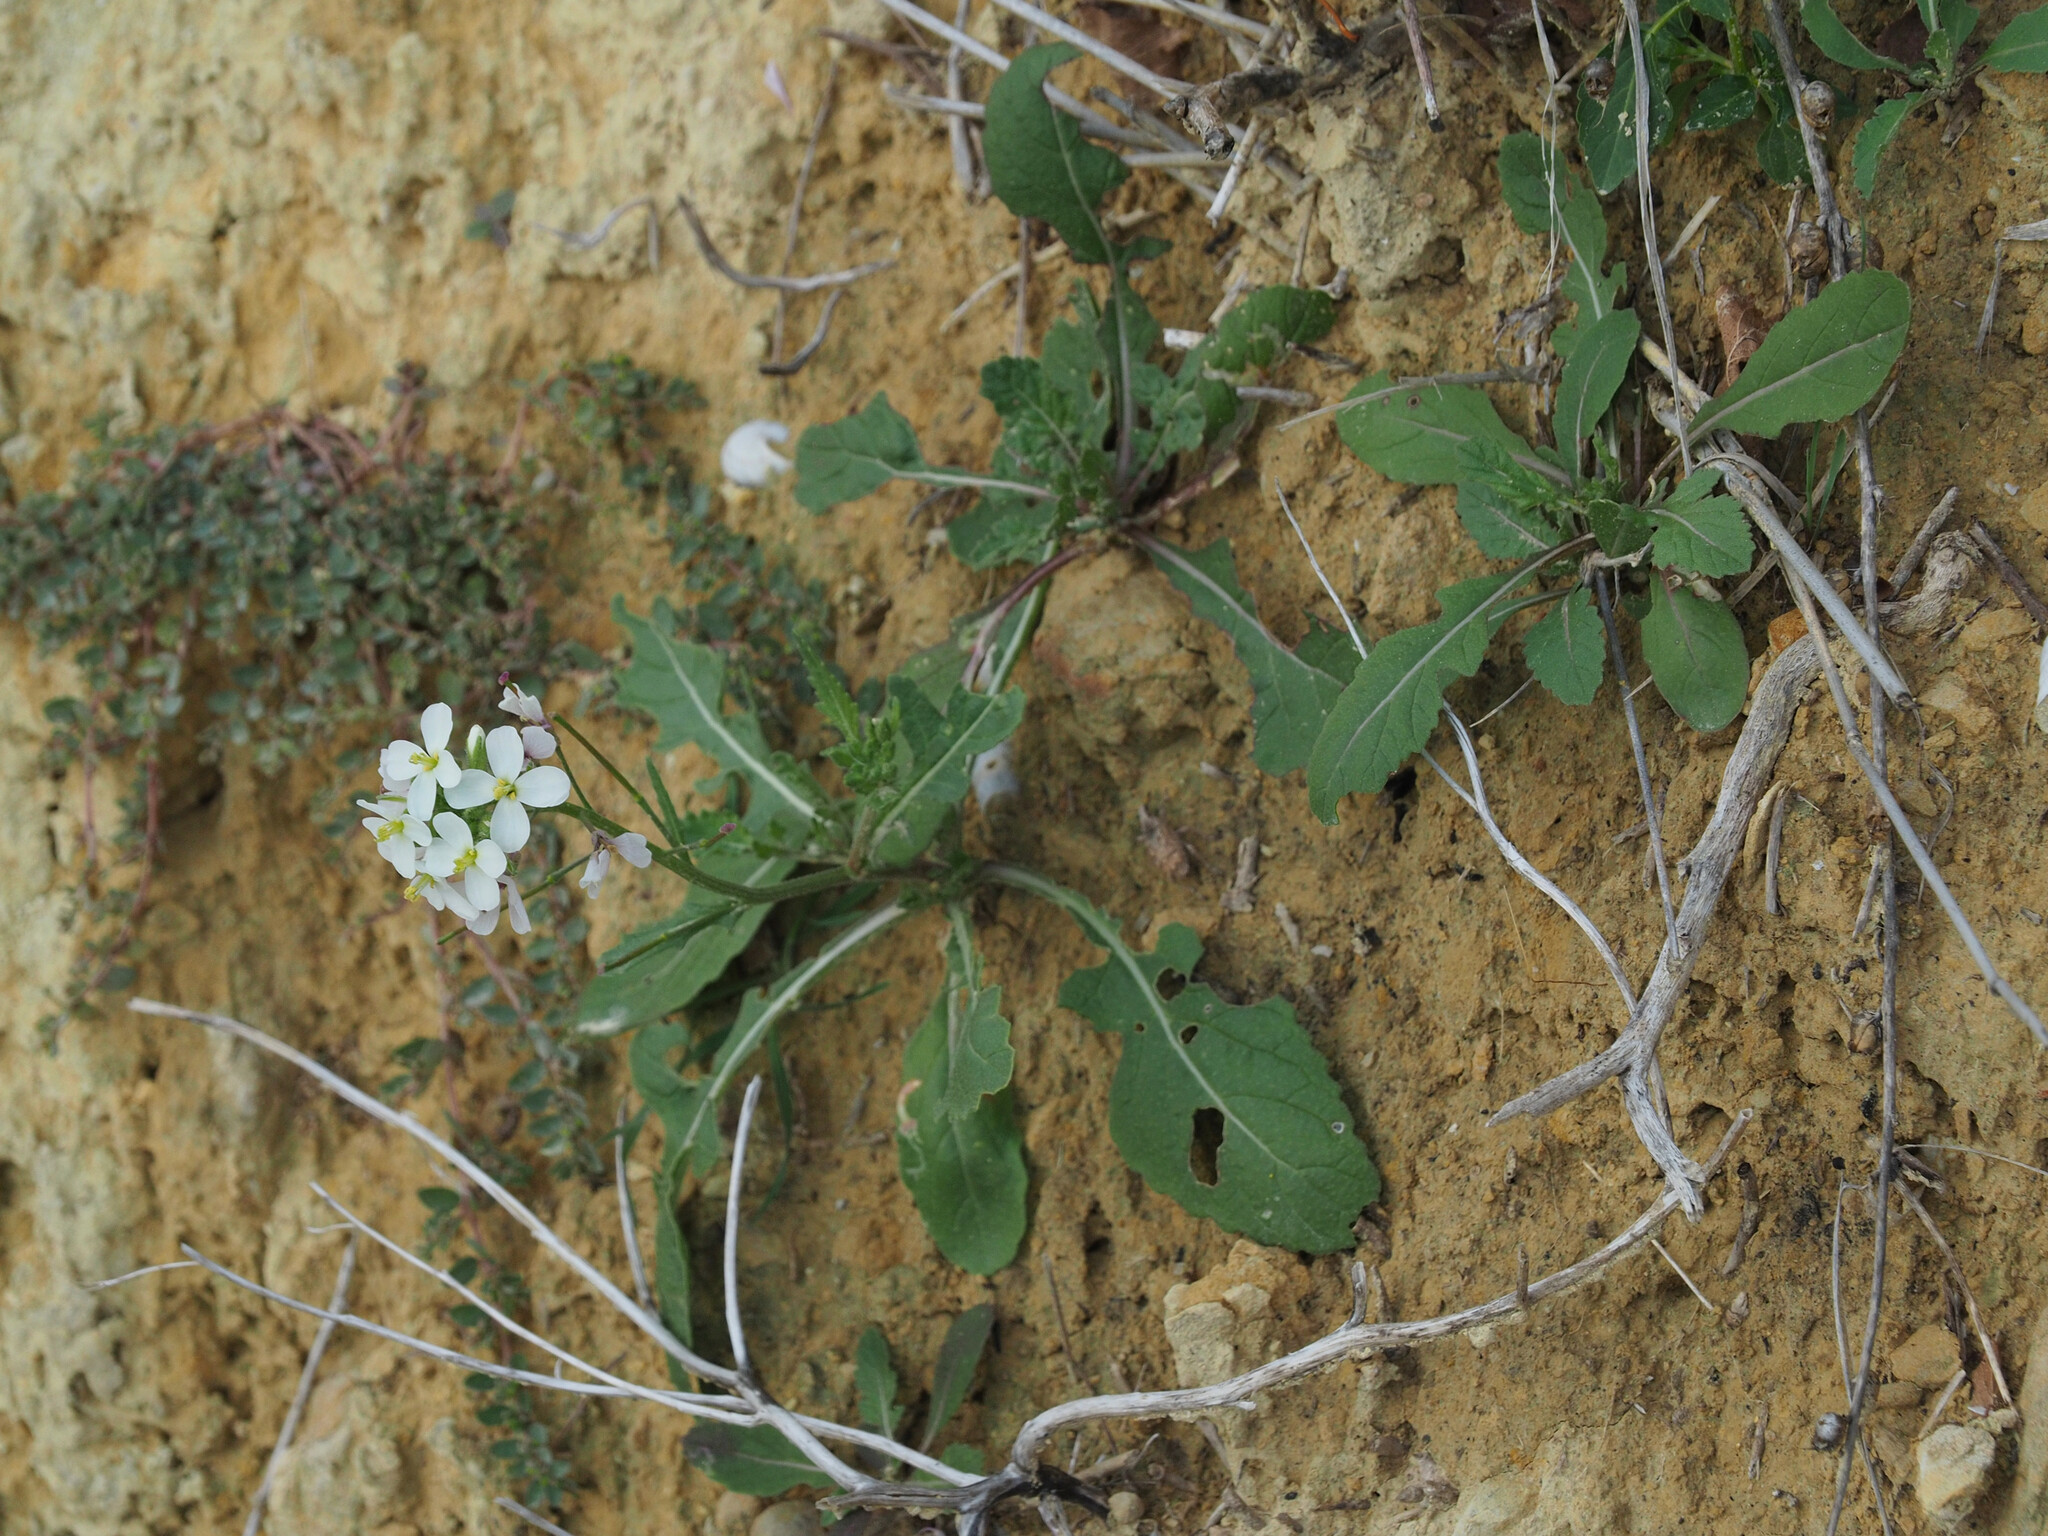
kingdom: Plantae
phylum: Tracheophyta
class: Magnoliopsida
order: Brassicales
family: Brassicaceae
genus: Diplotaxis
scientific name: Diplotaxis erucoides
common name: White rocket
